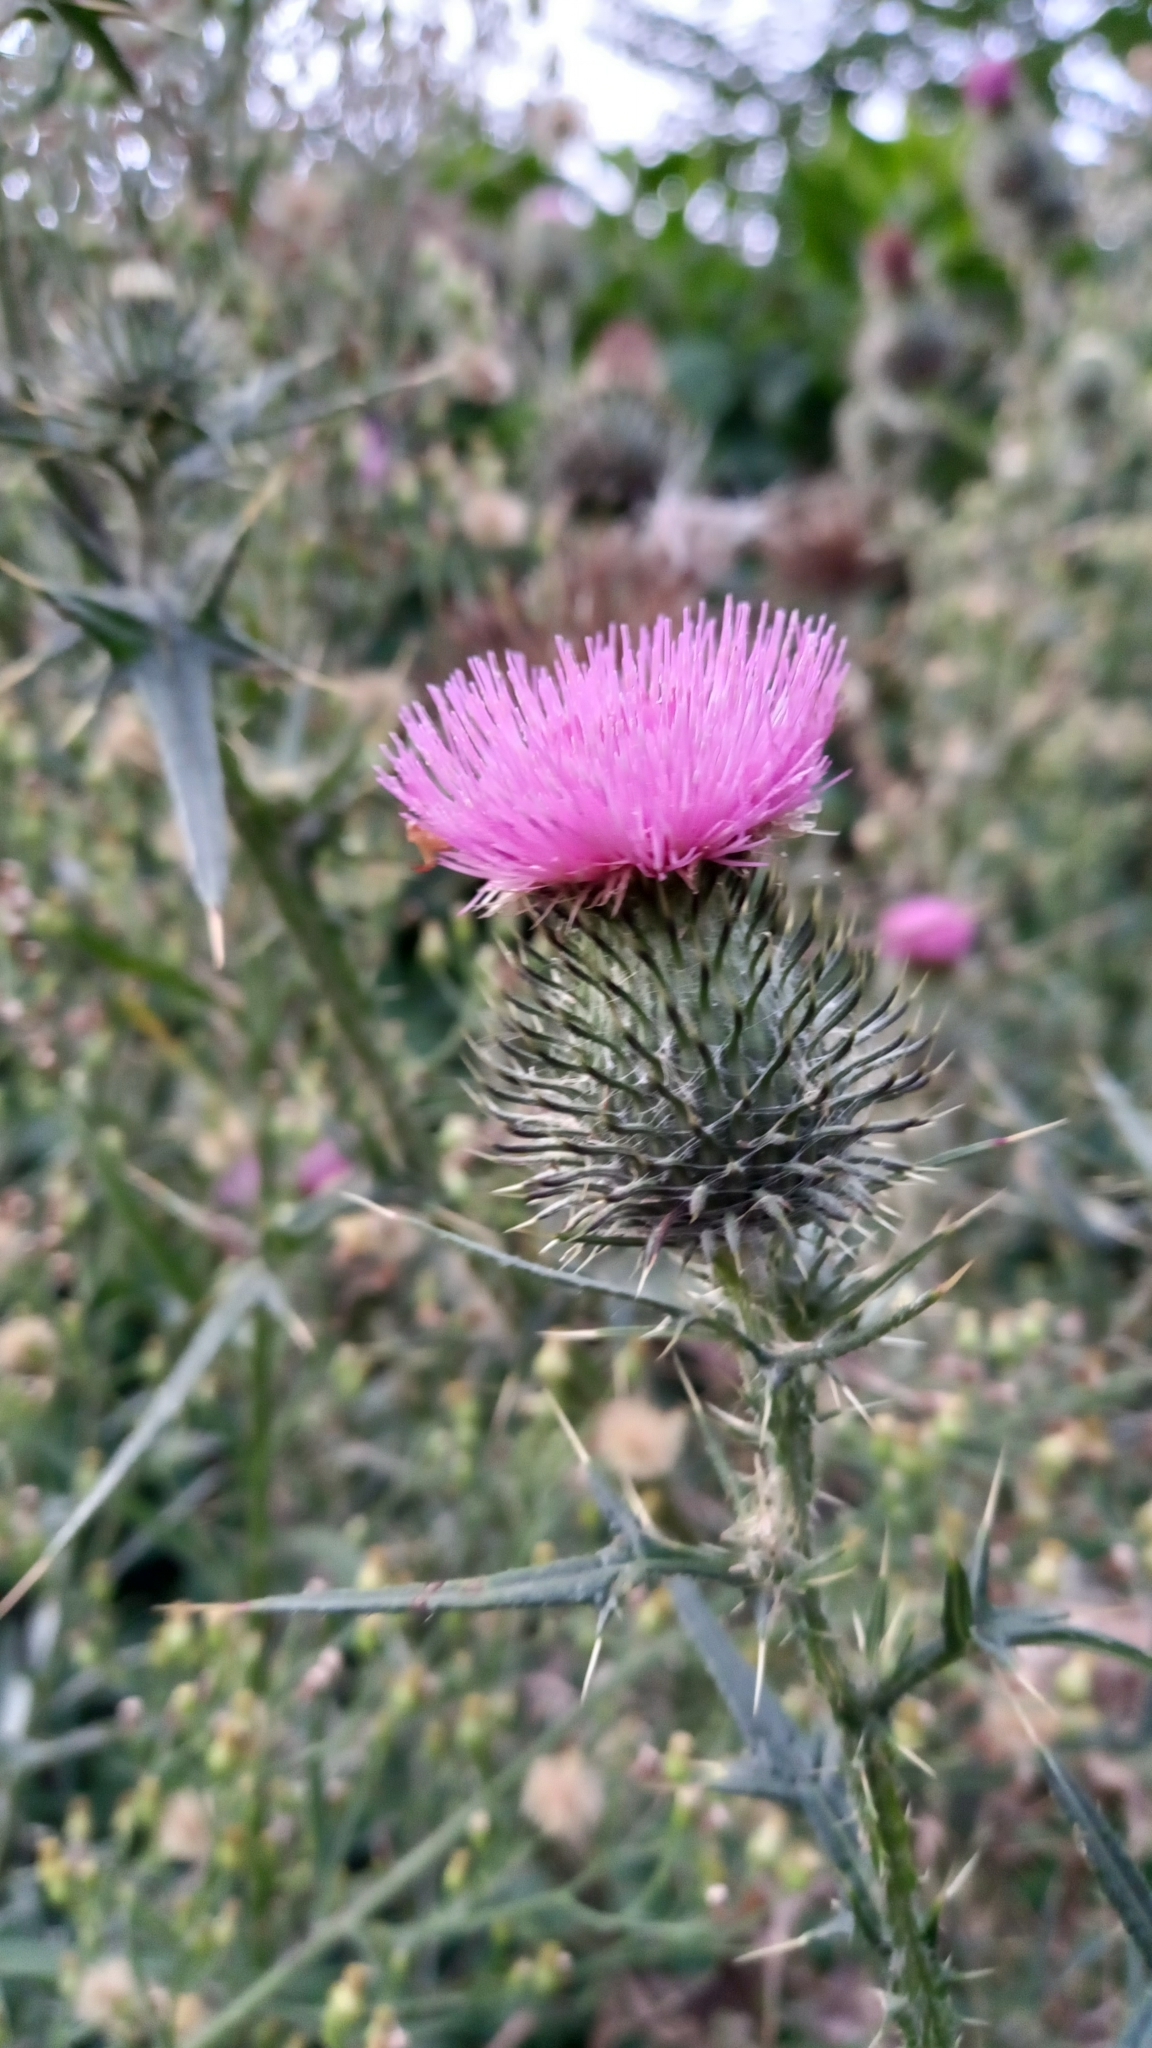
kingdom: Plantae
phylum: Tracheophyta
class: Magnoliopsida
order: Asterales
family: Asteraceae
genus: Cirsium
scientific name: Cirsium vulgare
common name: Bull thistle
